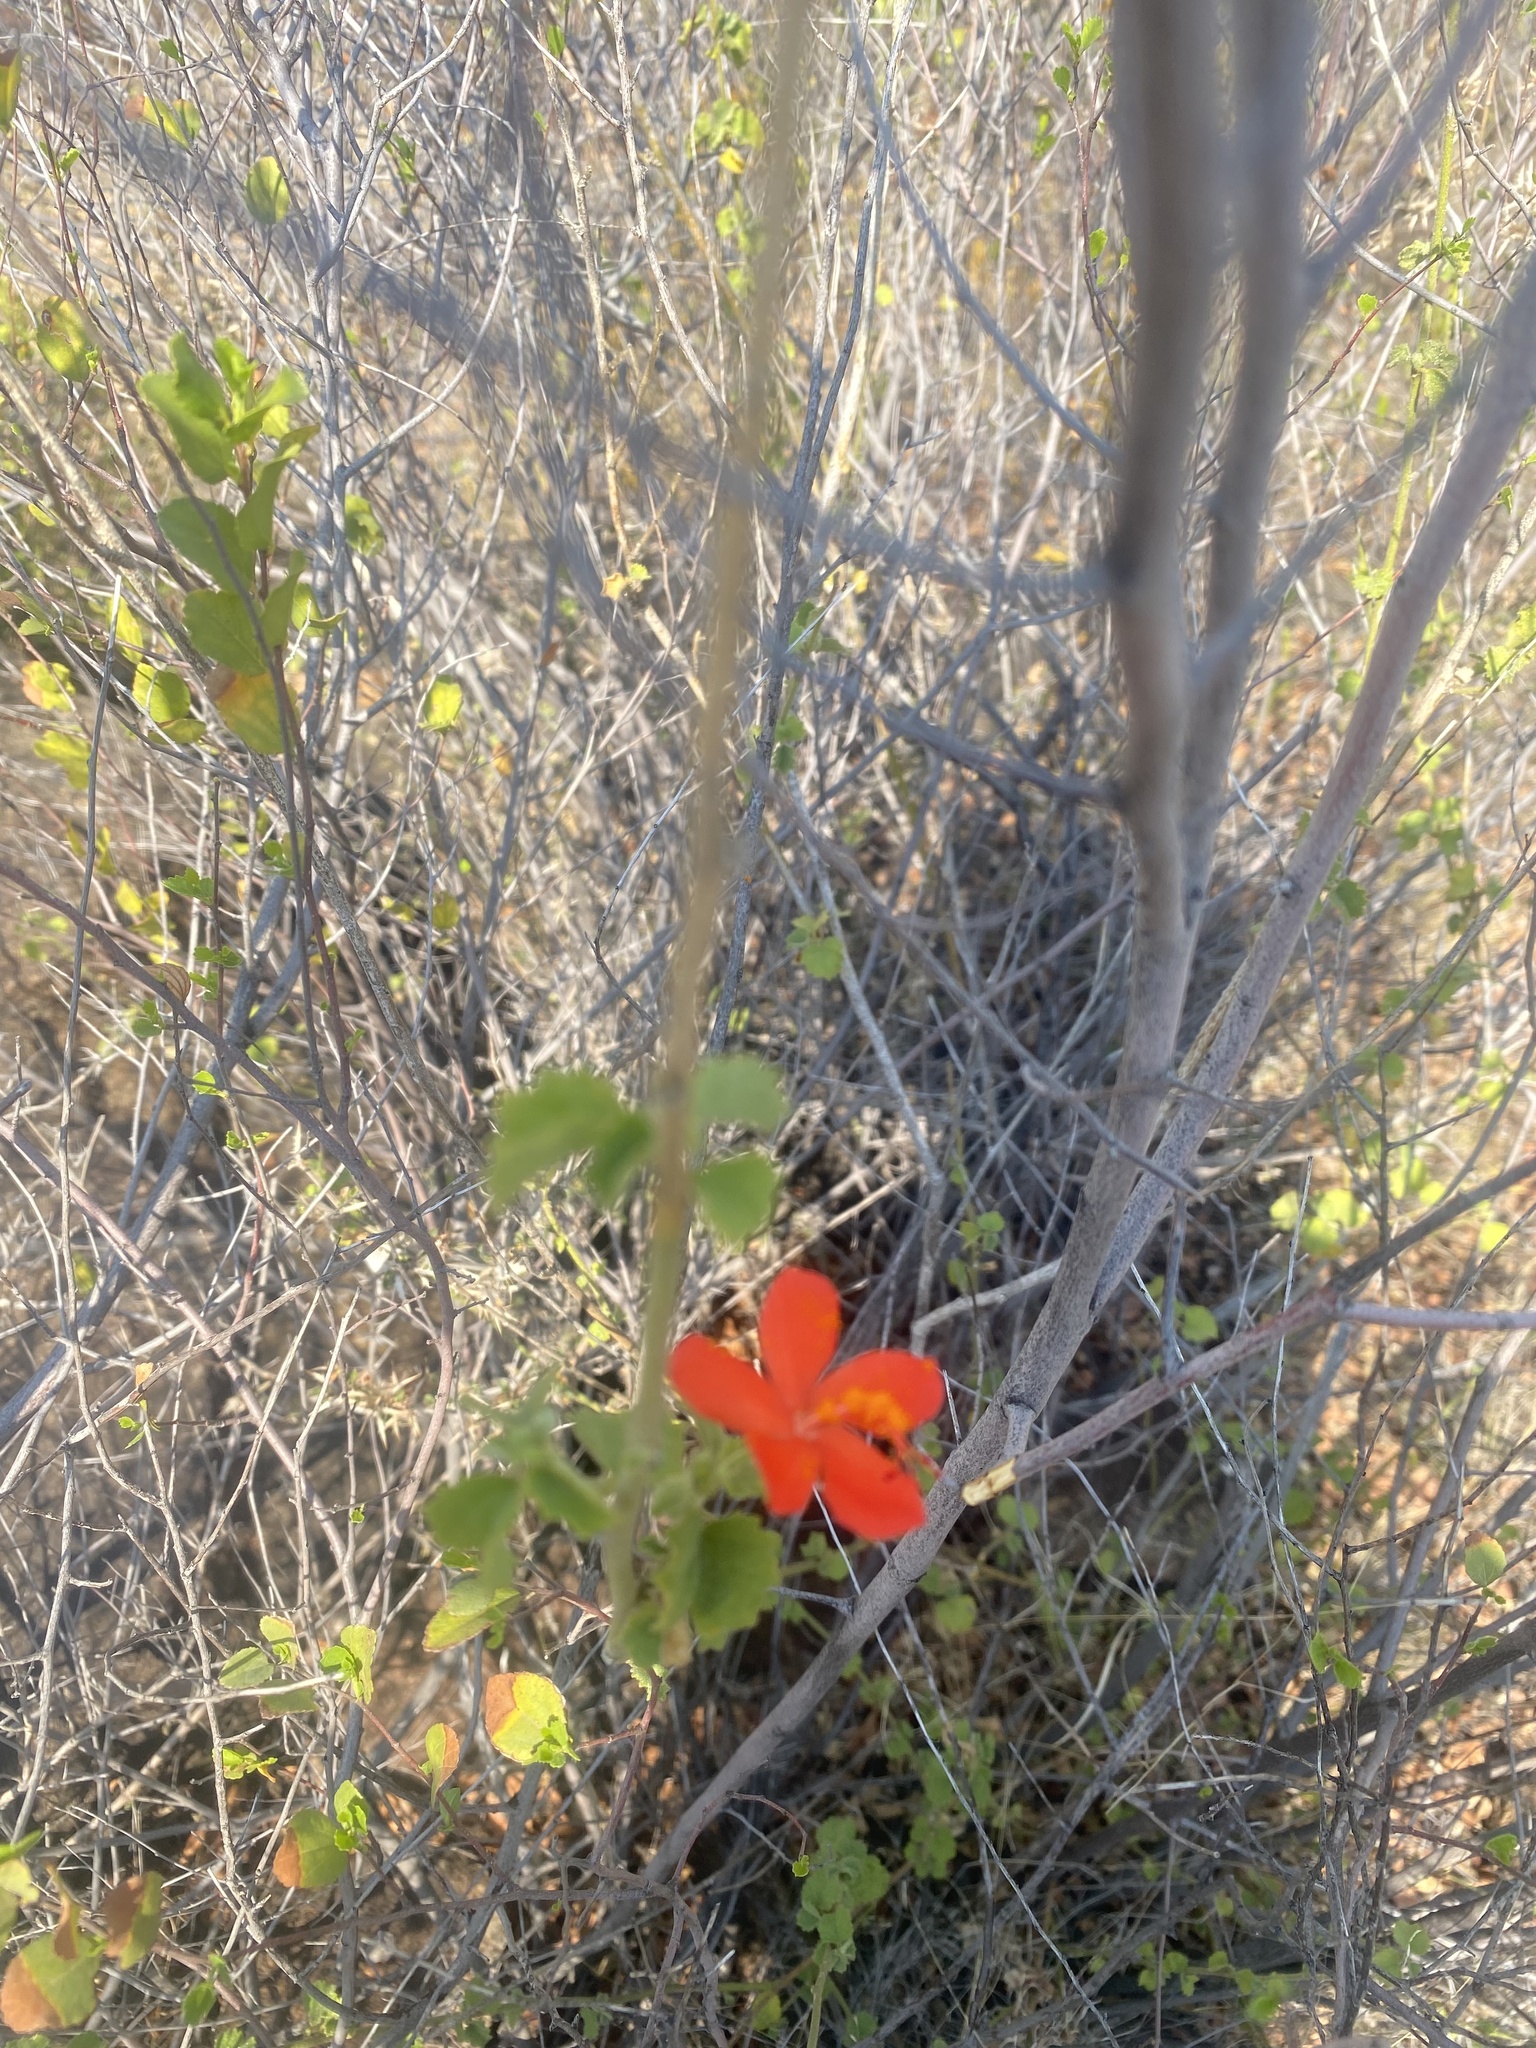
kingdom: Plantae
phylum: Tracheophyta
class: Magnoliopsida
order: Malvales
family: Malvaceae
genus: Hibiscus
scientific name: Hibiscus coddii
